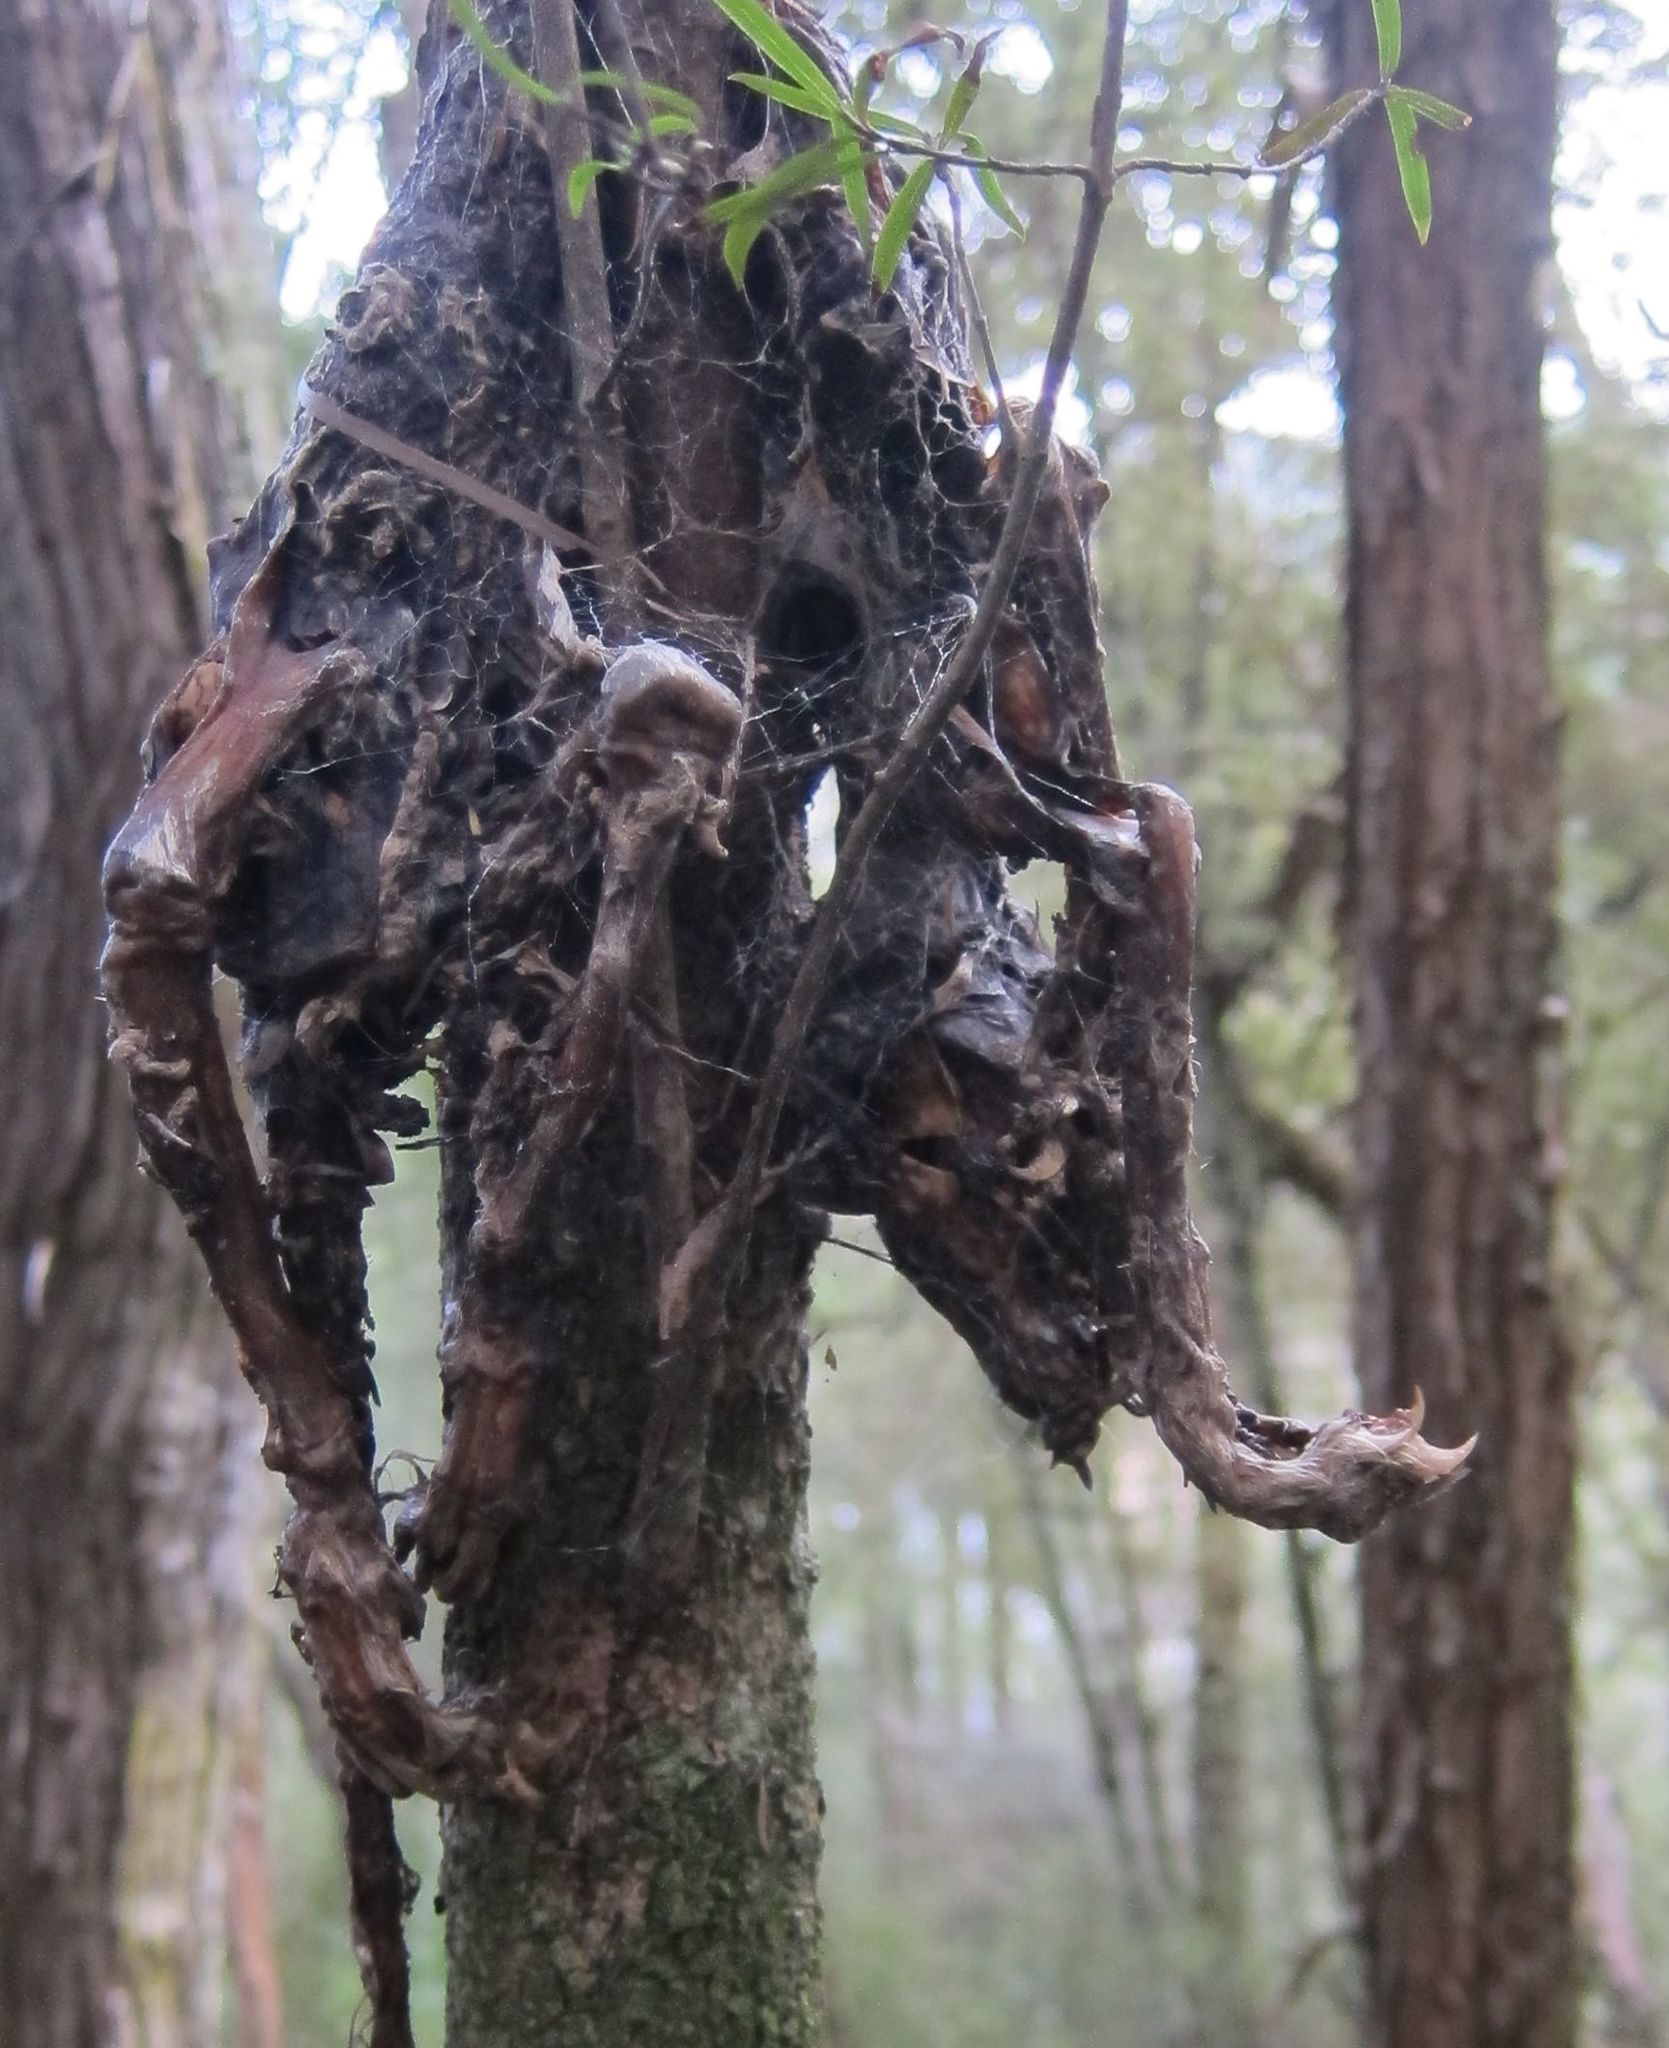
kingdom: Animalia
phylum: Chordata
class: Mammalia
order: Diprotodontia
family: Phalangeridae
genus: Trichosurus
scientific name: Trichosurus vulpecula
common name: Common brushtail
